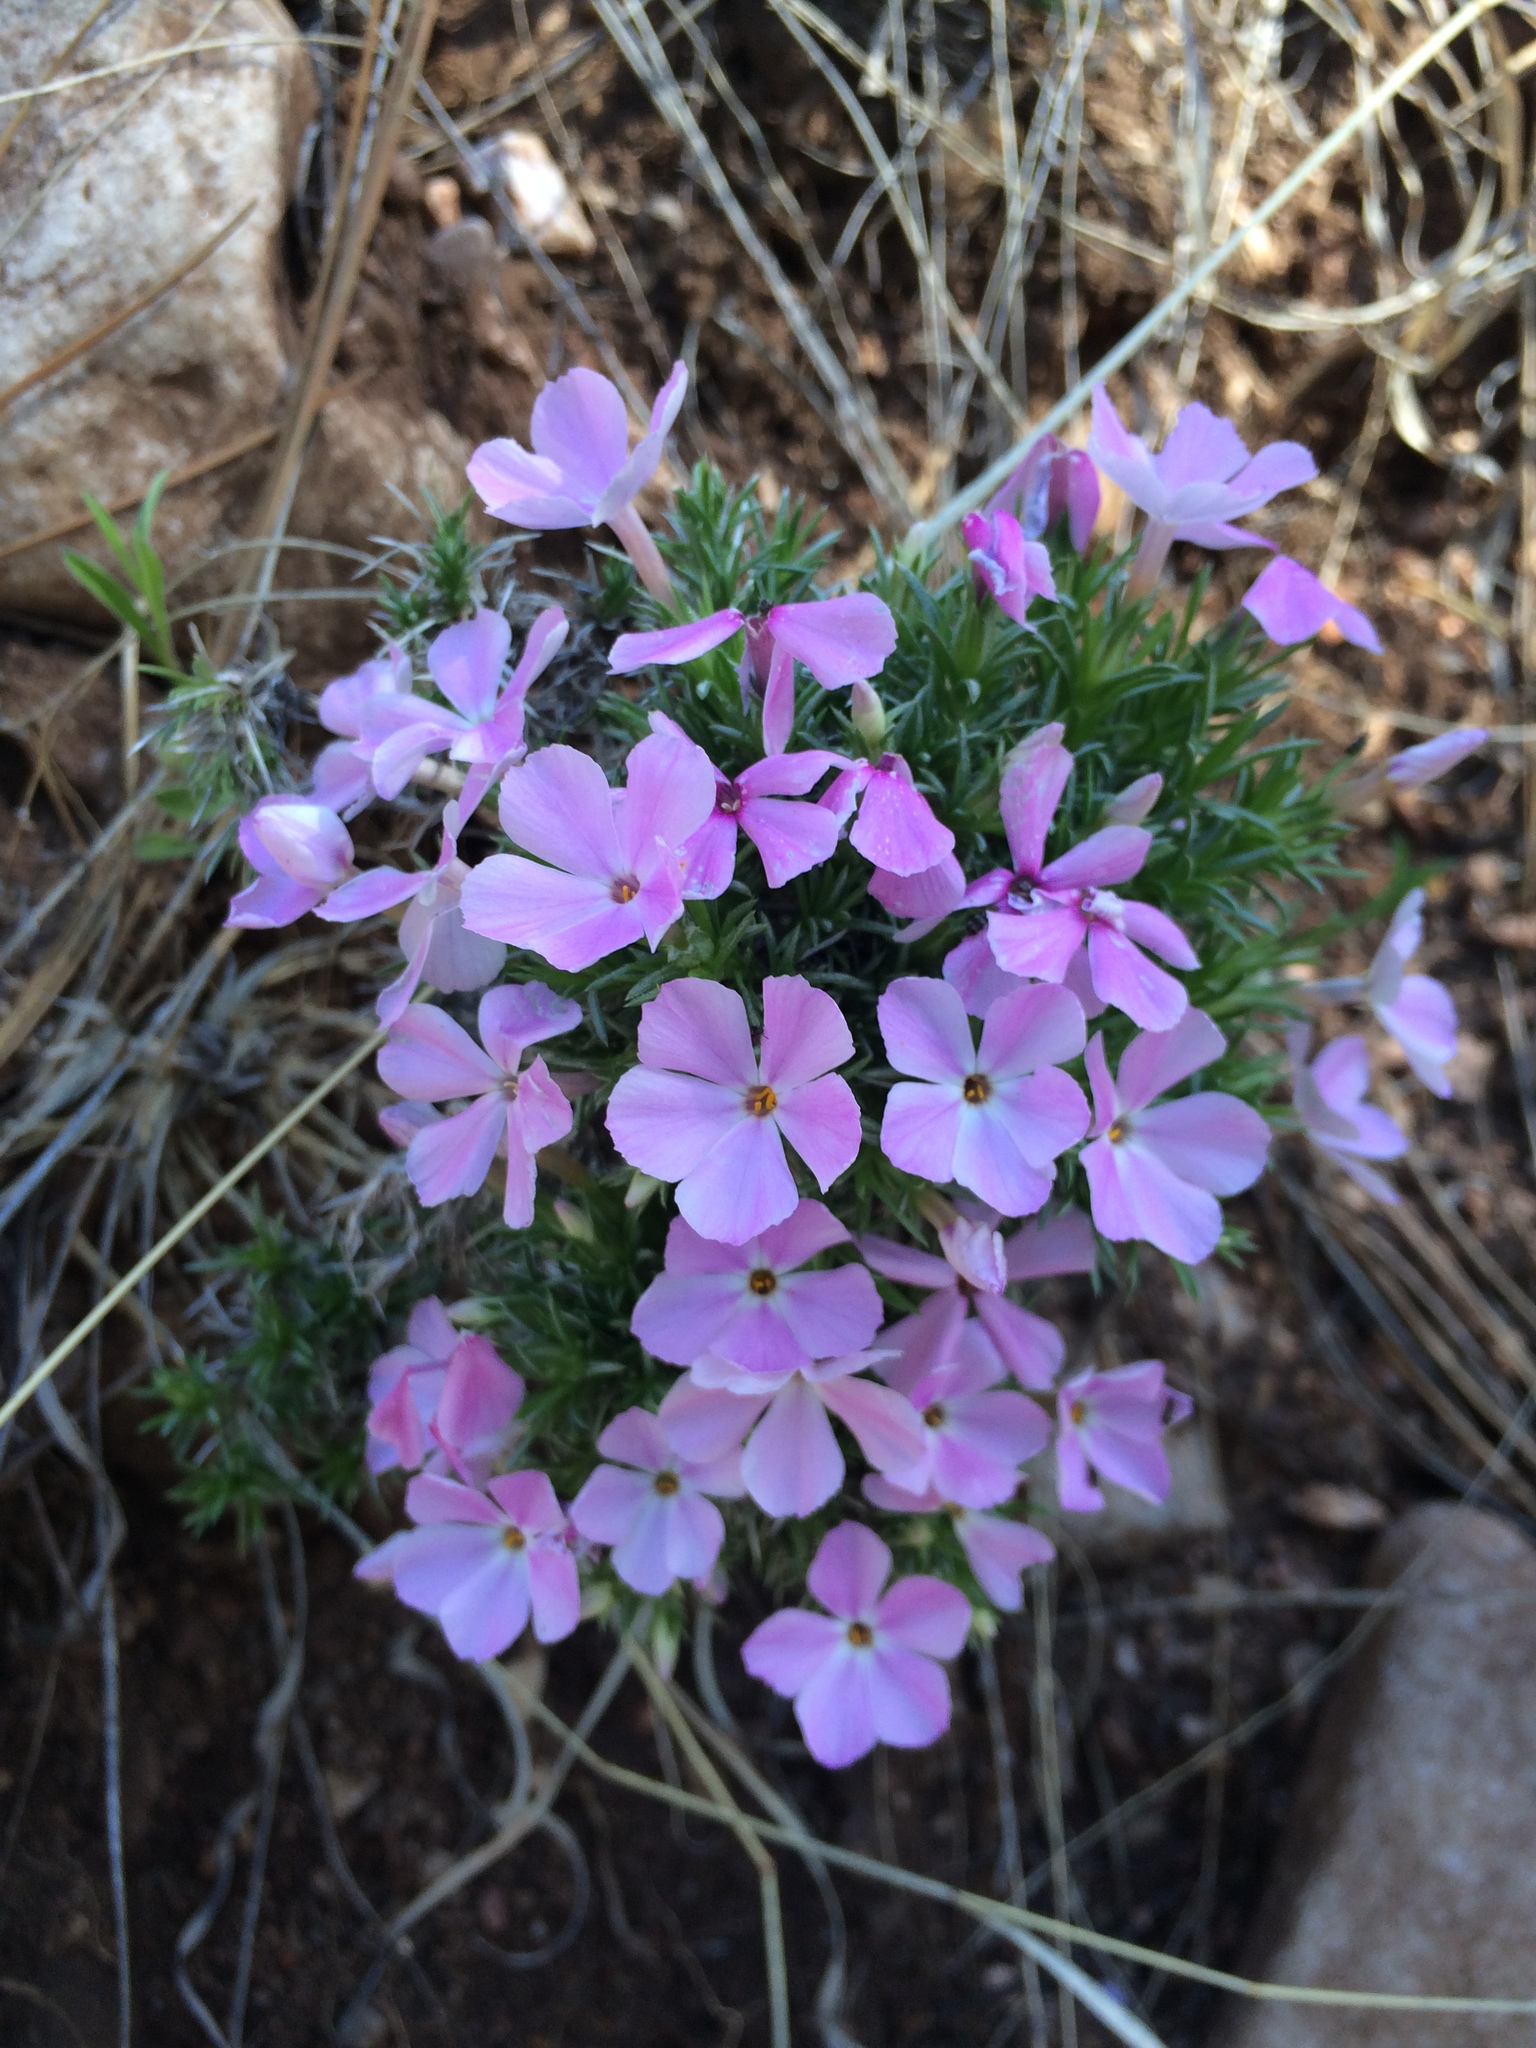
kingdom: Plantae
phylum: Tracheophyta
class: Magnoliopsida
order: Ericales
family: Polemoniaceae
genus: Phlox
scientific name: Phlox austromontana
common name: Desert phlox
